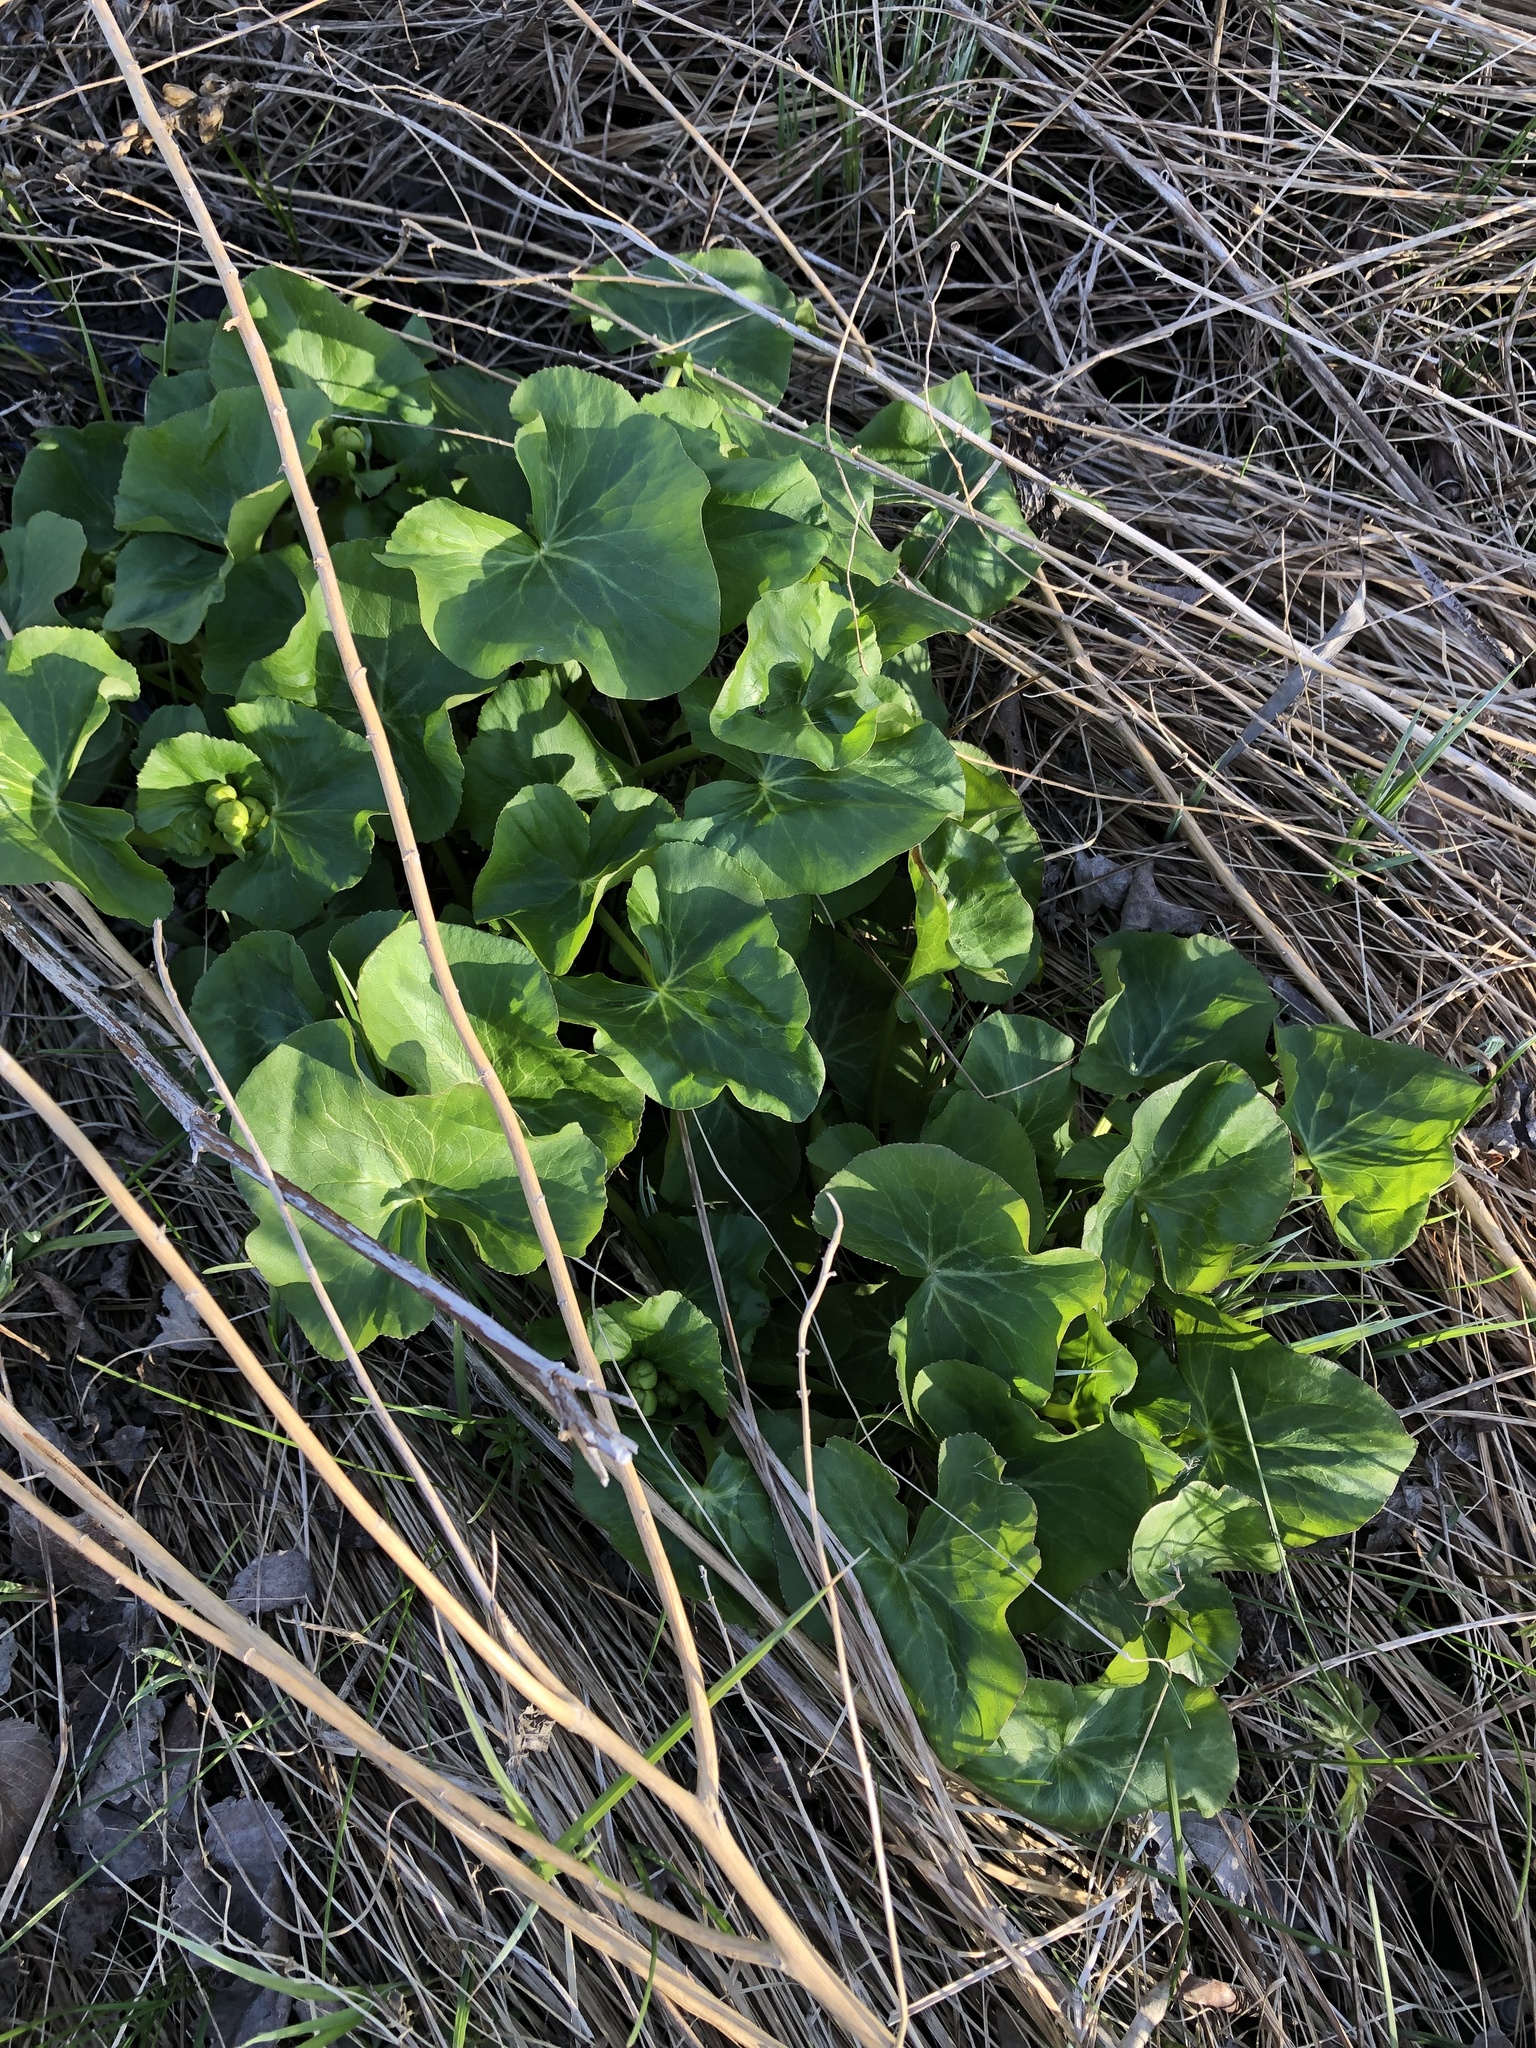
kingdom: Plantae
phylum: Tracheophyta
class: Magnoliopsida
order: Ranunculales
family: Ranunculaceae
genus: Caltha
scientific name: Caltha palustris
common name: Marsh marigold
